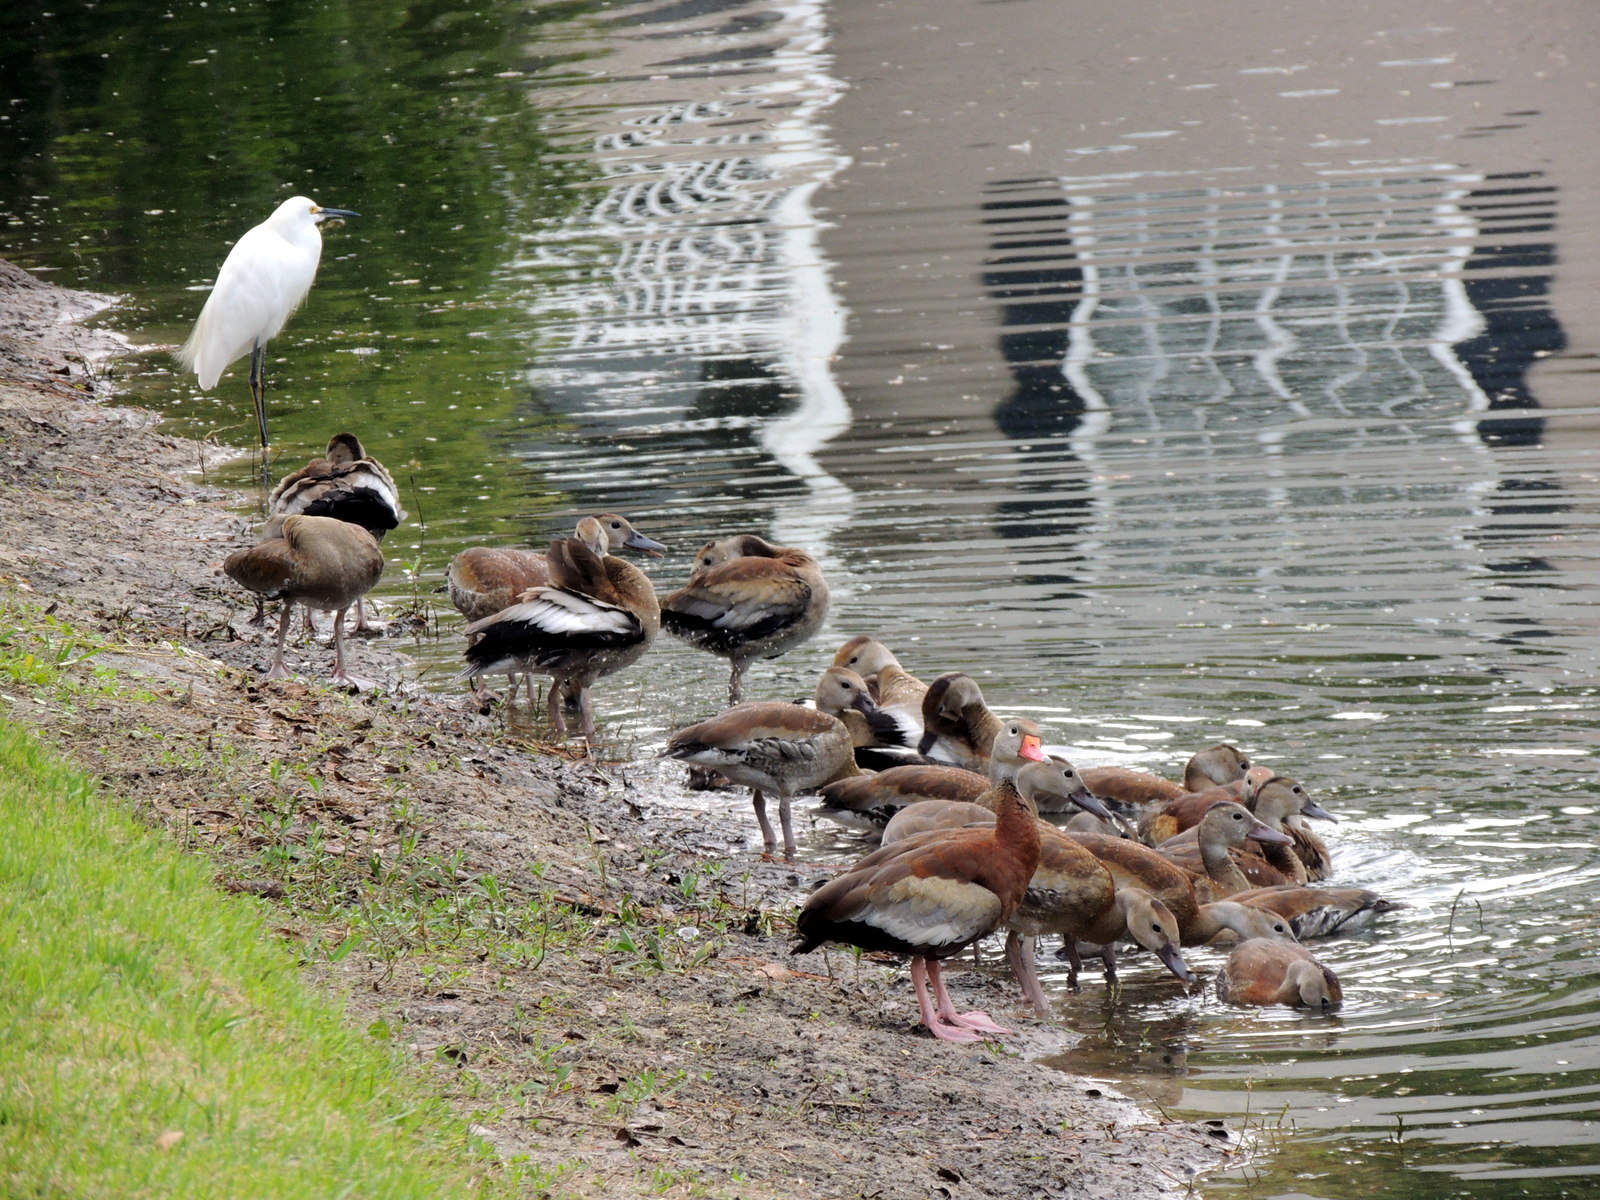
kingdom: Animalia
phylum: Chordata
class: Aves
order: Pelecaniformes
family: Ardeidae
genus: Egretta
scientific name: Egretta thula
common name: Snowy egret
